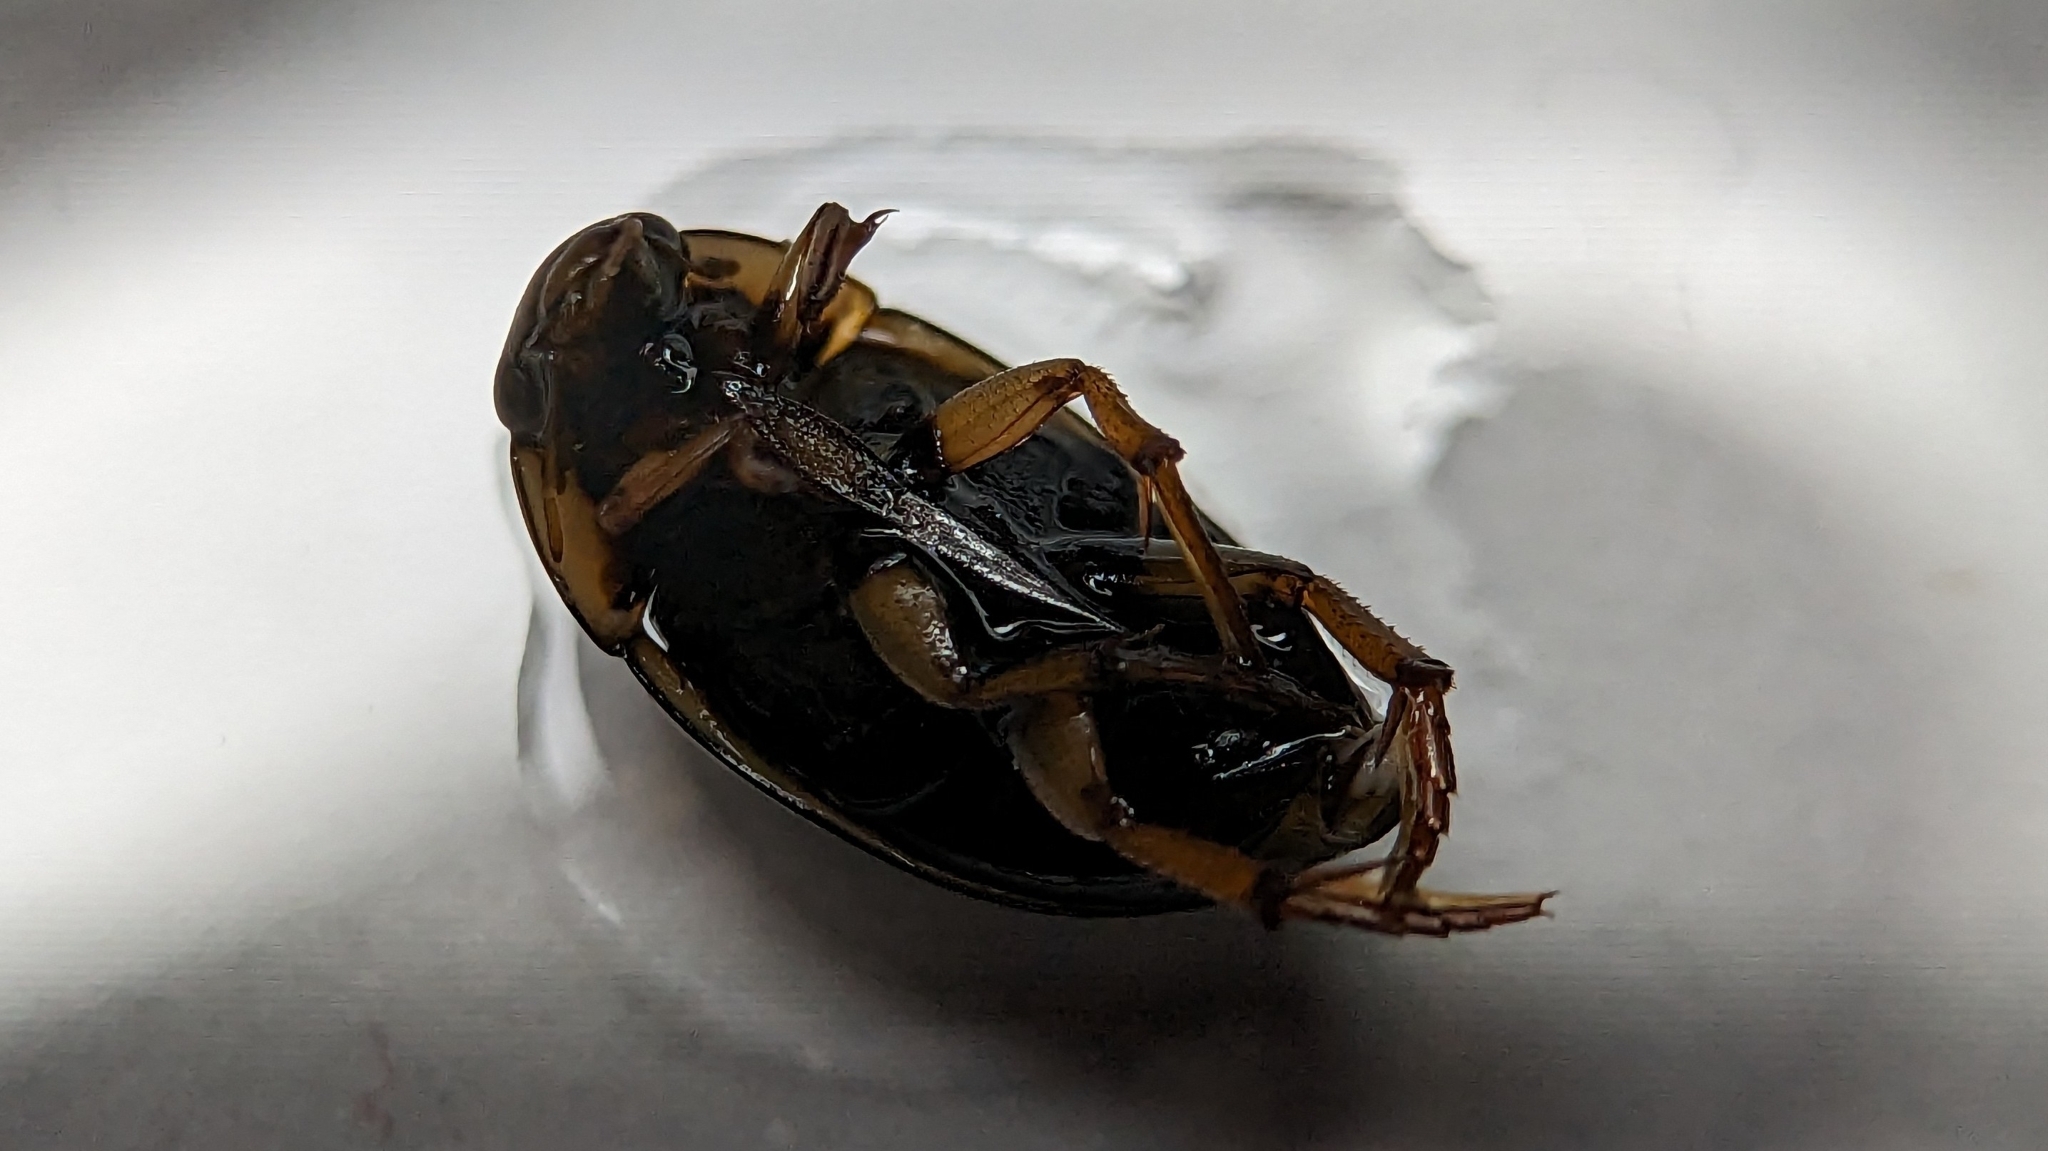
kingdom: Animalia
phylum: Arthropoda
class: Insecta
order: Coleoptera
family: Hydrophilidae
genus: Tropisternus
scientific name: Tropisternus collaris
